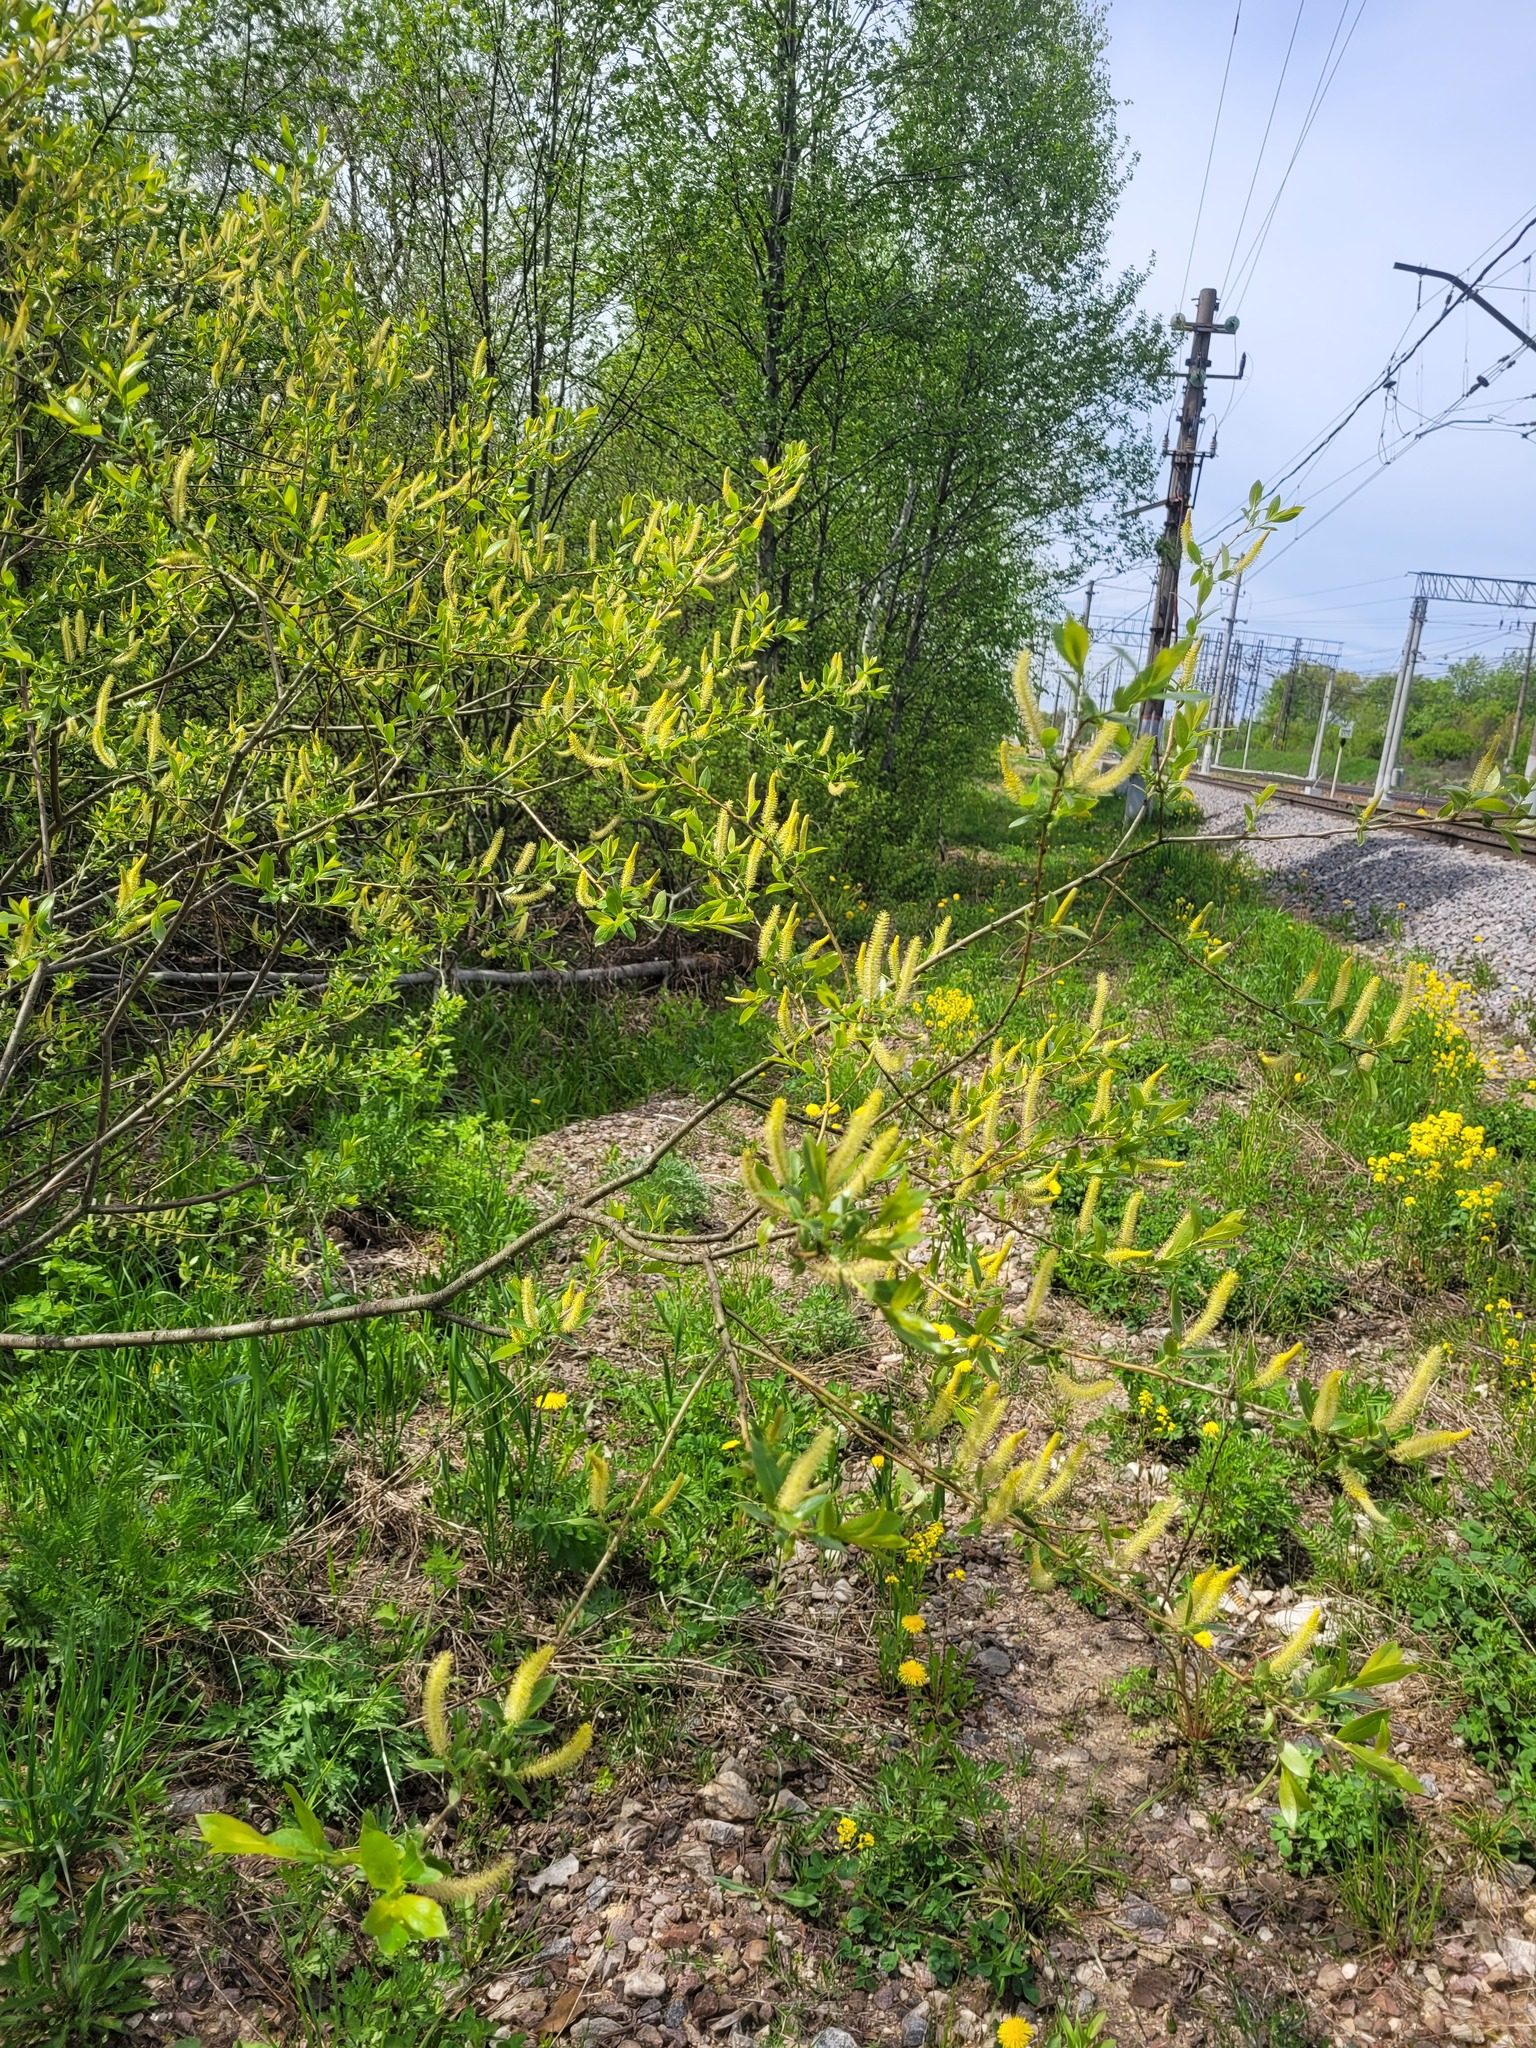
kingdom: Plantae
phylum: Tracheophyta
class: Magnoliopsida
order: Malpighiales
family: Salicaceae
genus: Salix
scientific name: Salix triandra
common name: Almond willow
